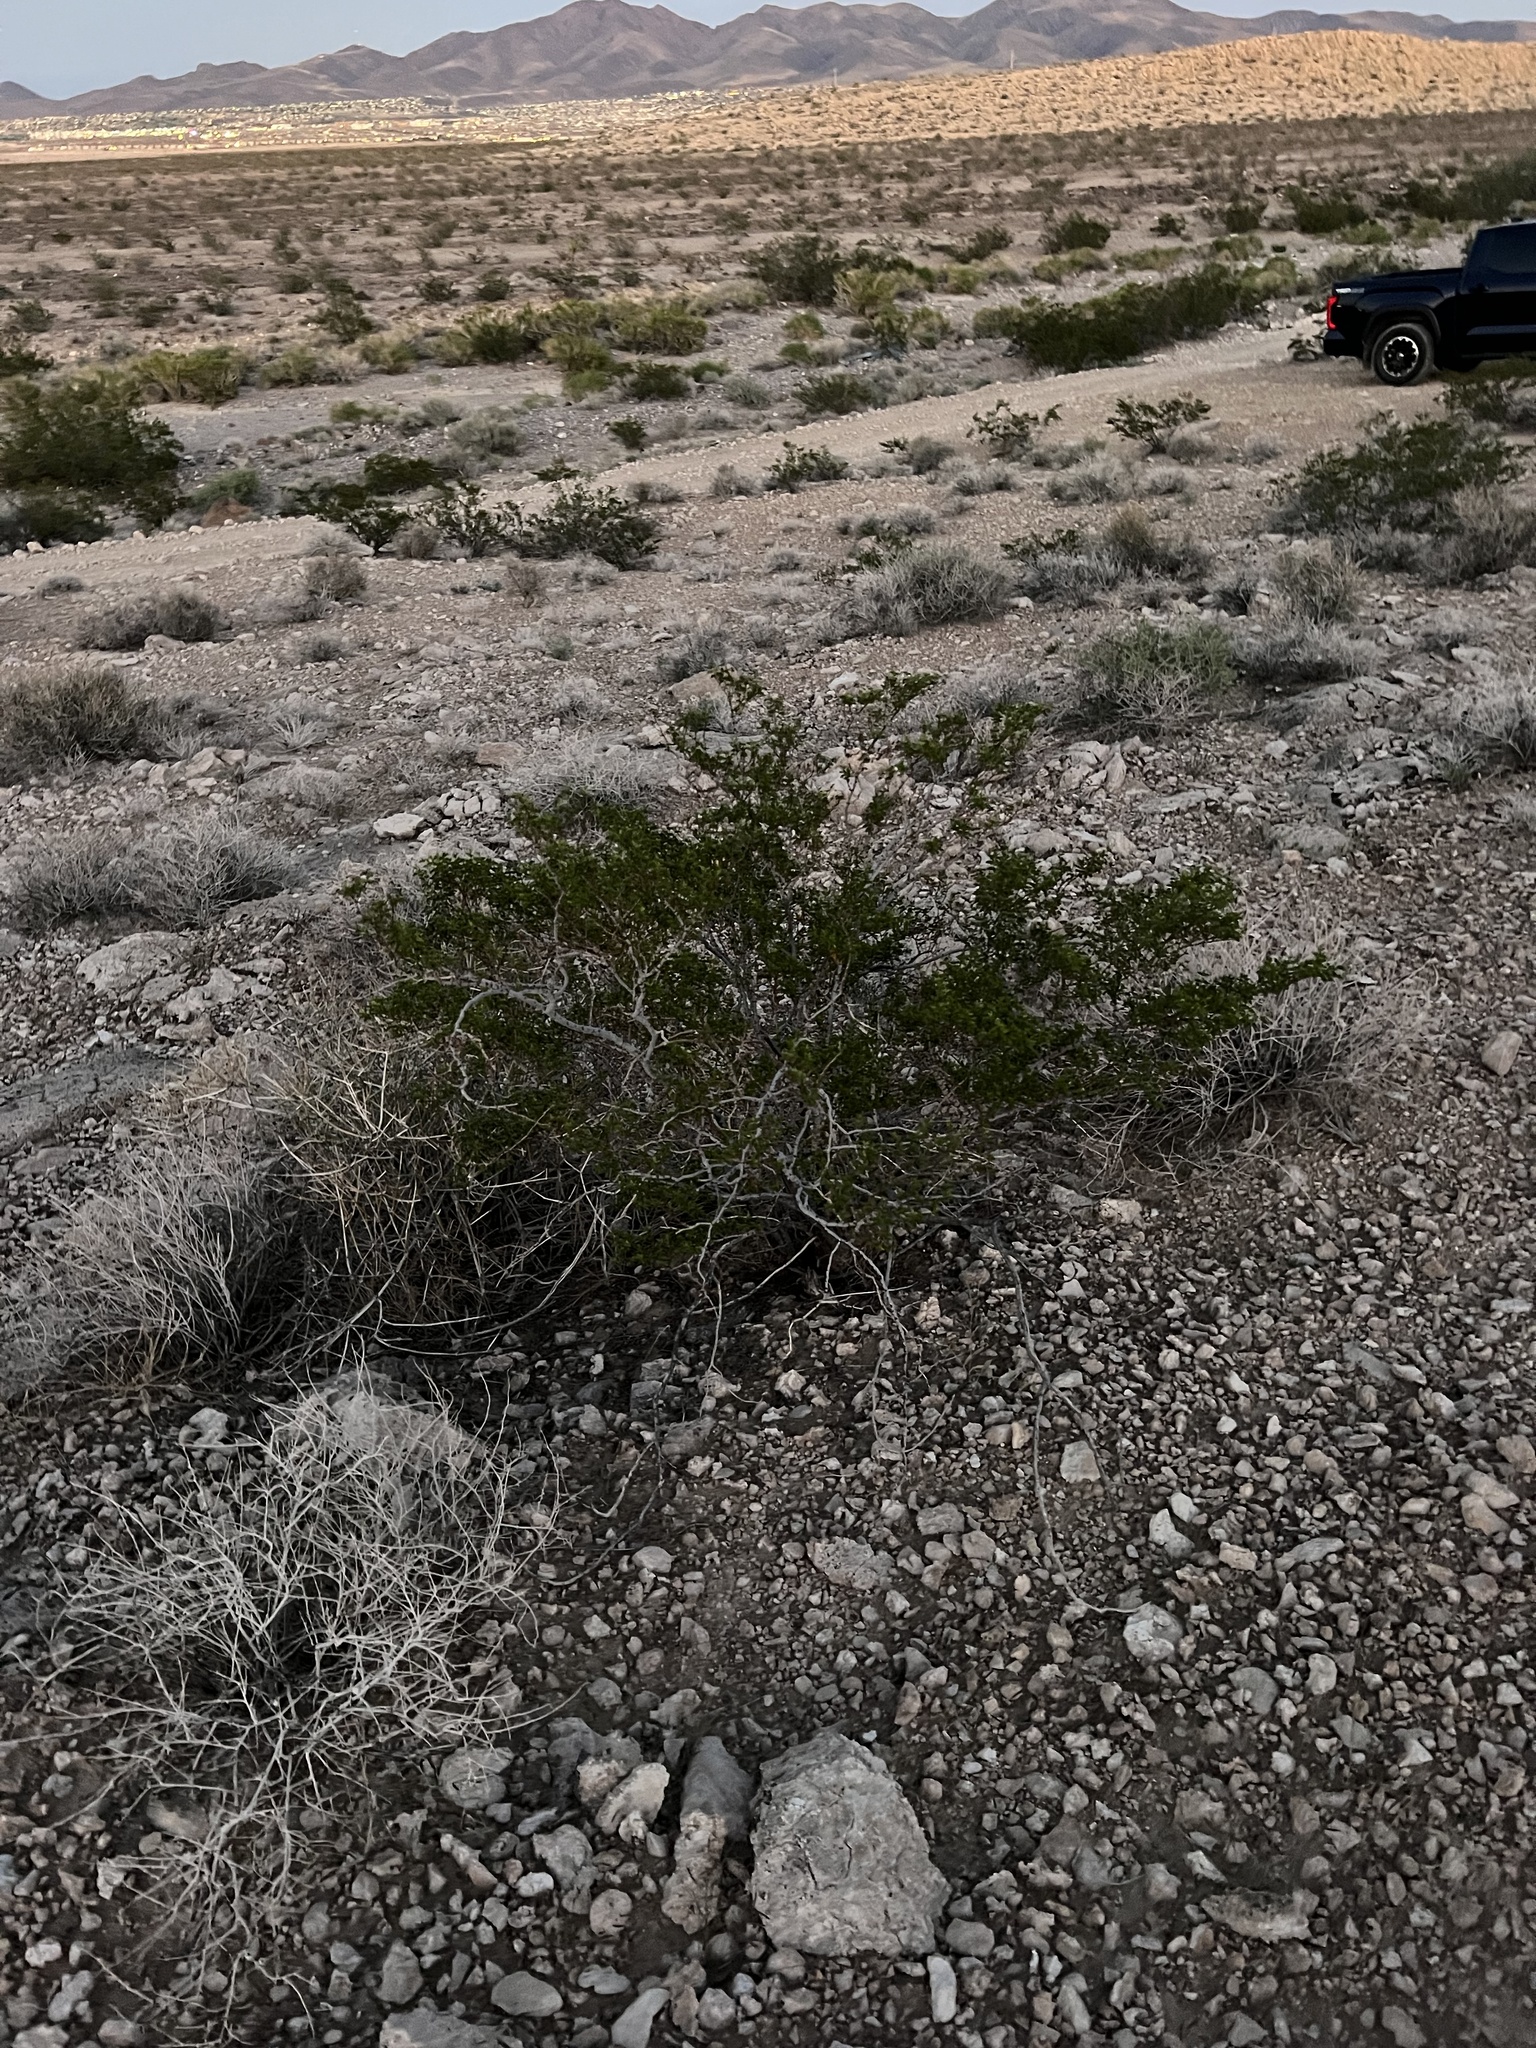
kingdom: Plantae
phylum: Tracheophyta
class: Magnoliopsida
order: Zygophyllales
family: Zygophyllaceae
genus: Larrea
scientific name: Larrea tridentata
